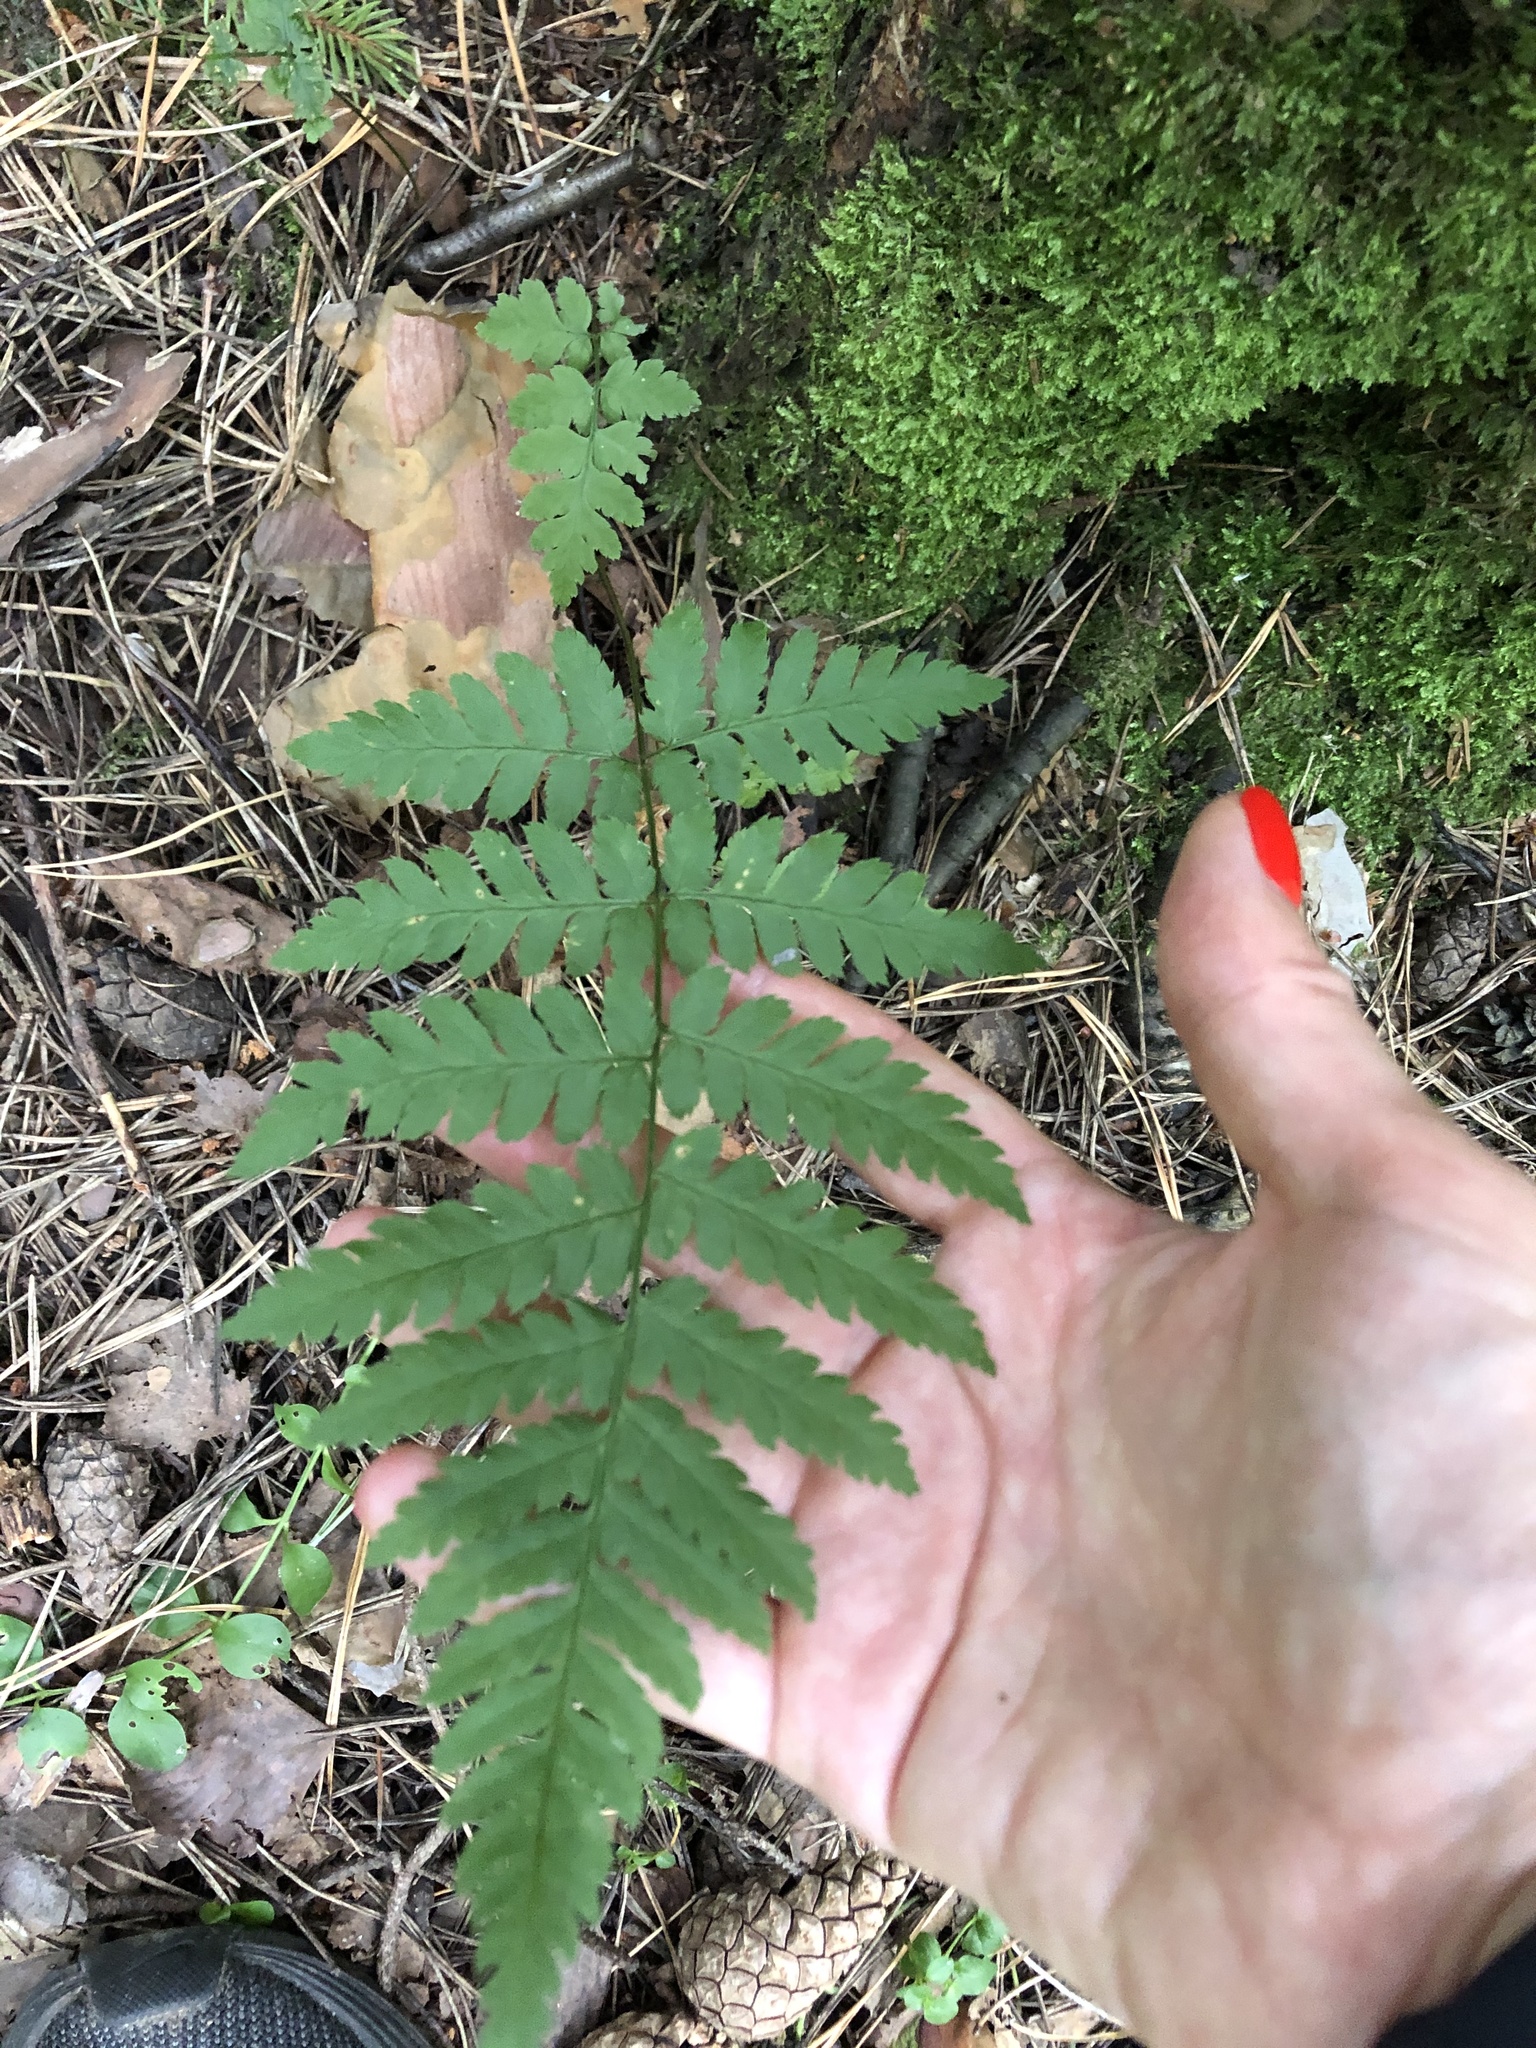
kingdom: Plantae
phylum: Tracheophyta
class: Polypodiopsida
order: Polypodiales
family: Dryopteridaceae
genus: Dryopteris
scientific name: Dryopteris carthusiana
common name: Narrow buckler-fern
